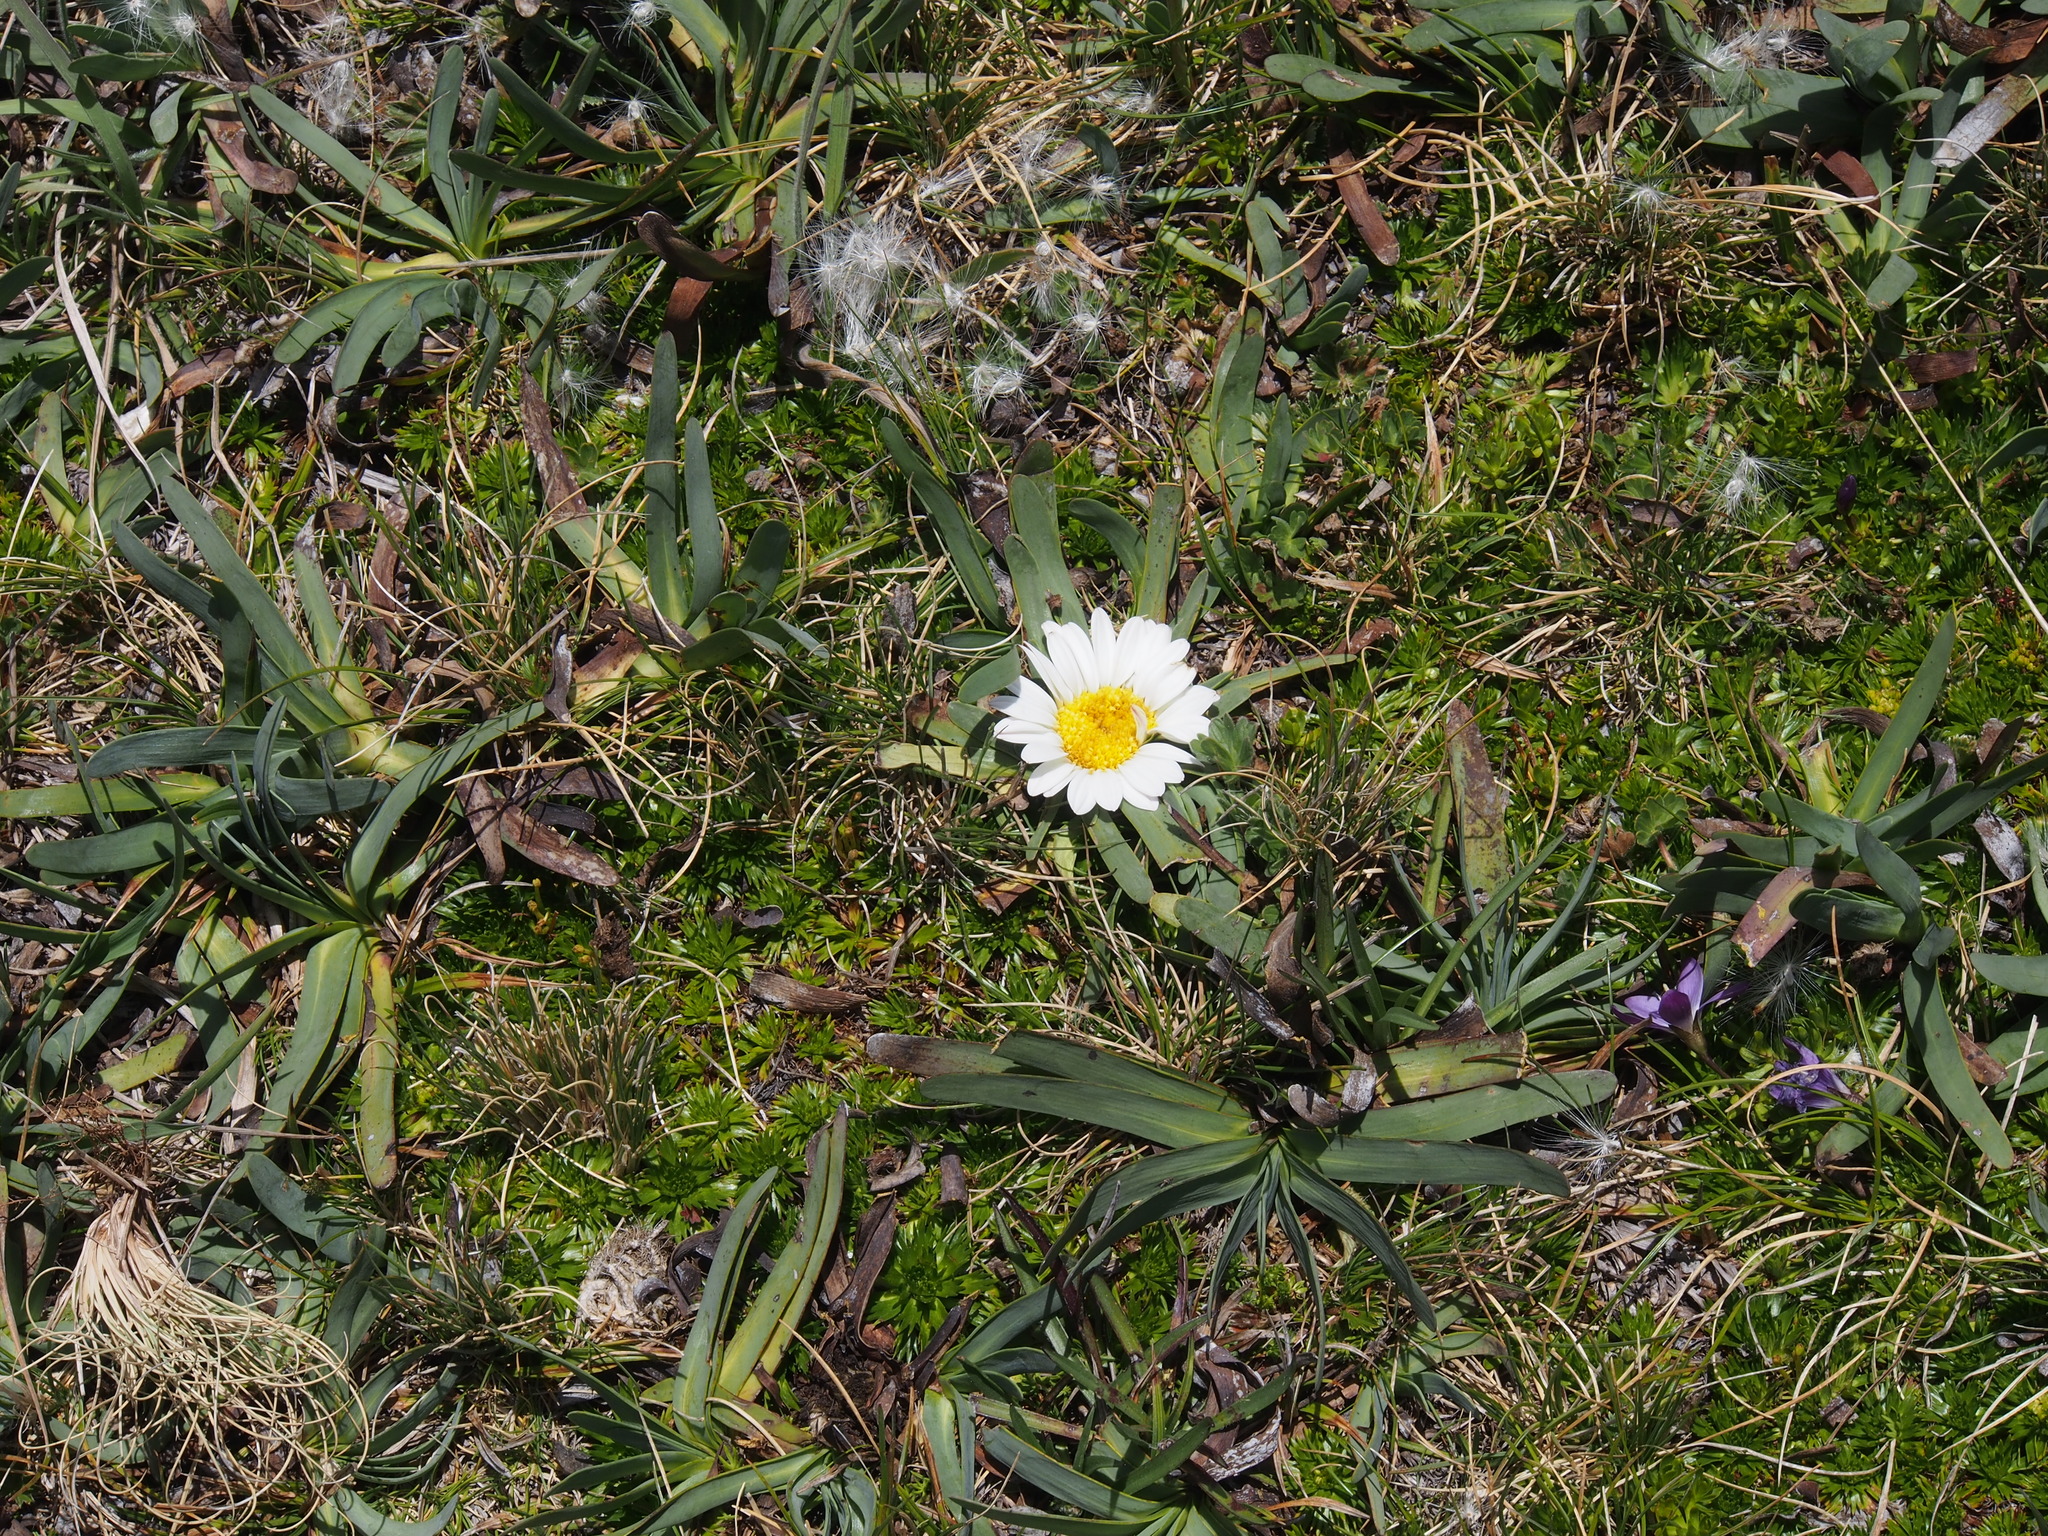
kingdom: Plantae
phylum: Tracheophyta
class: Magnoliopsida
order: Asterales
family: Asteraceae
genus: Rockhausenia
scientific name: Rockhausenia nubigena
